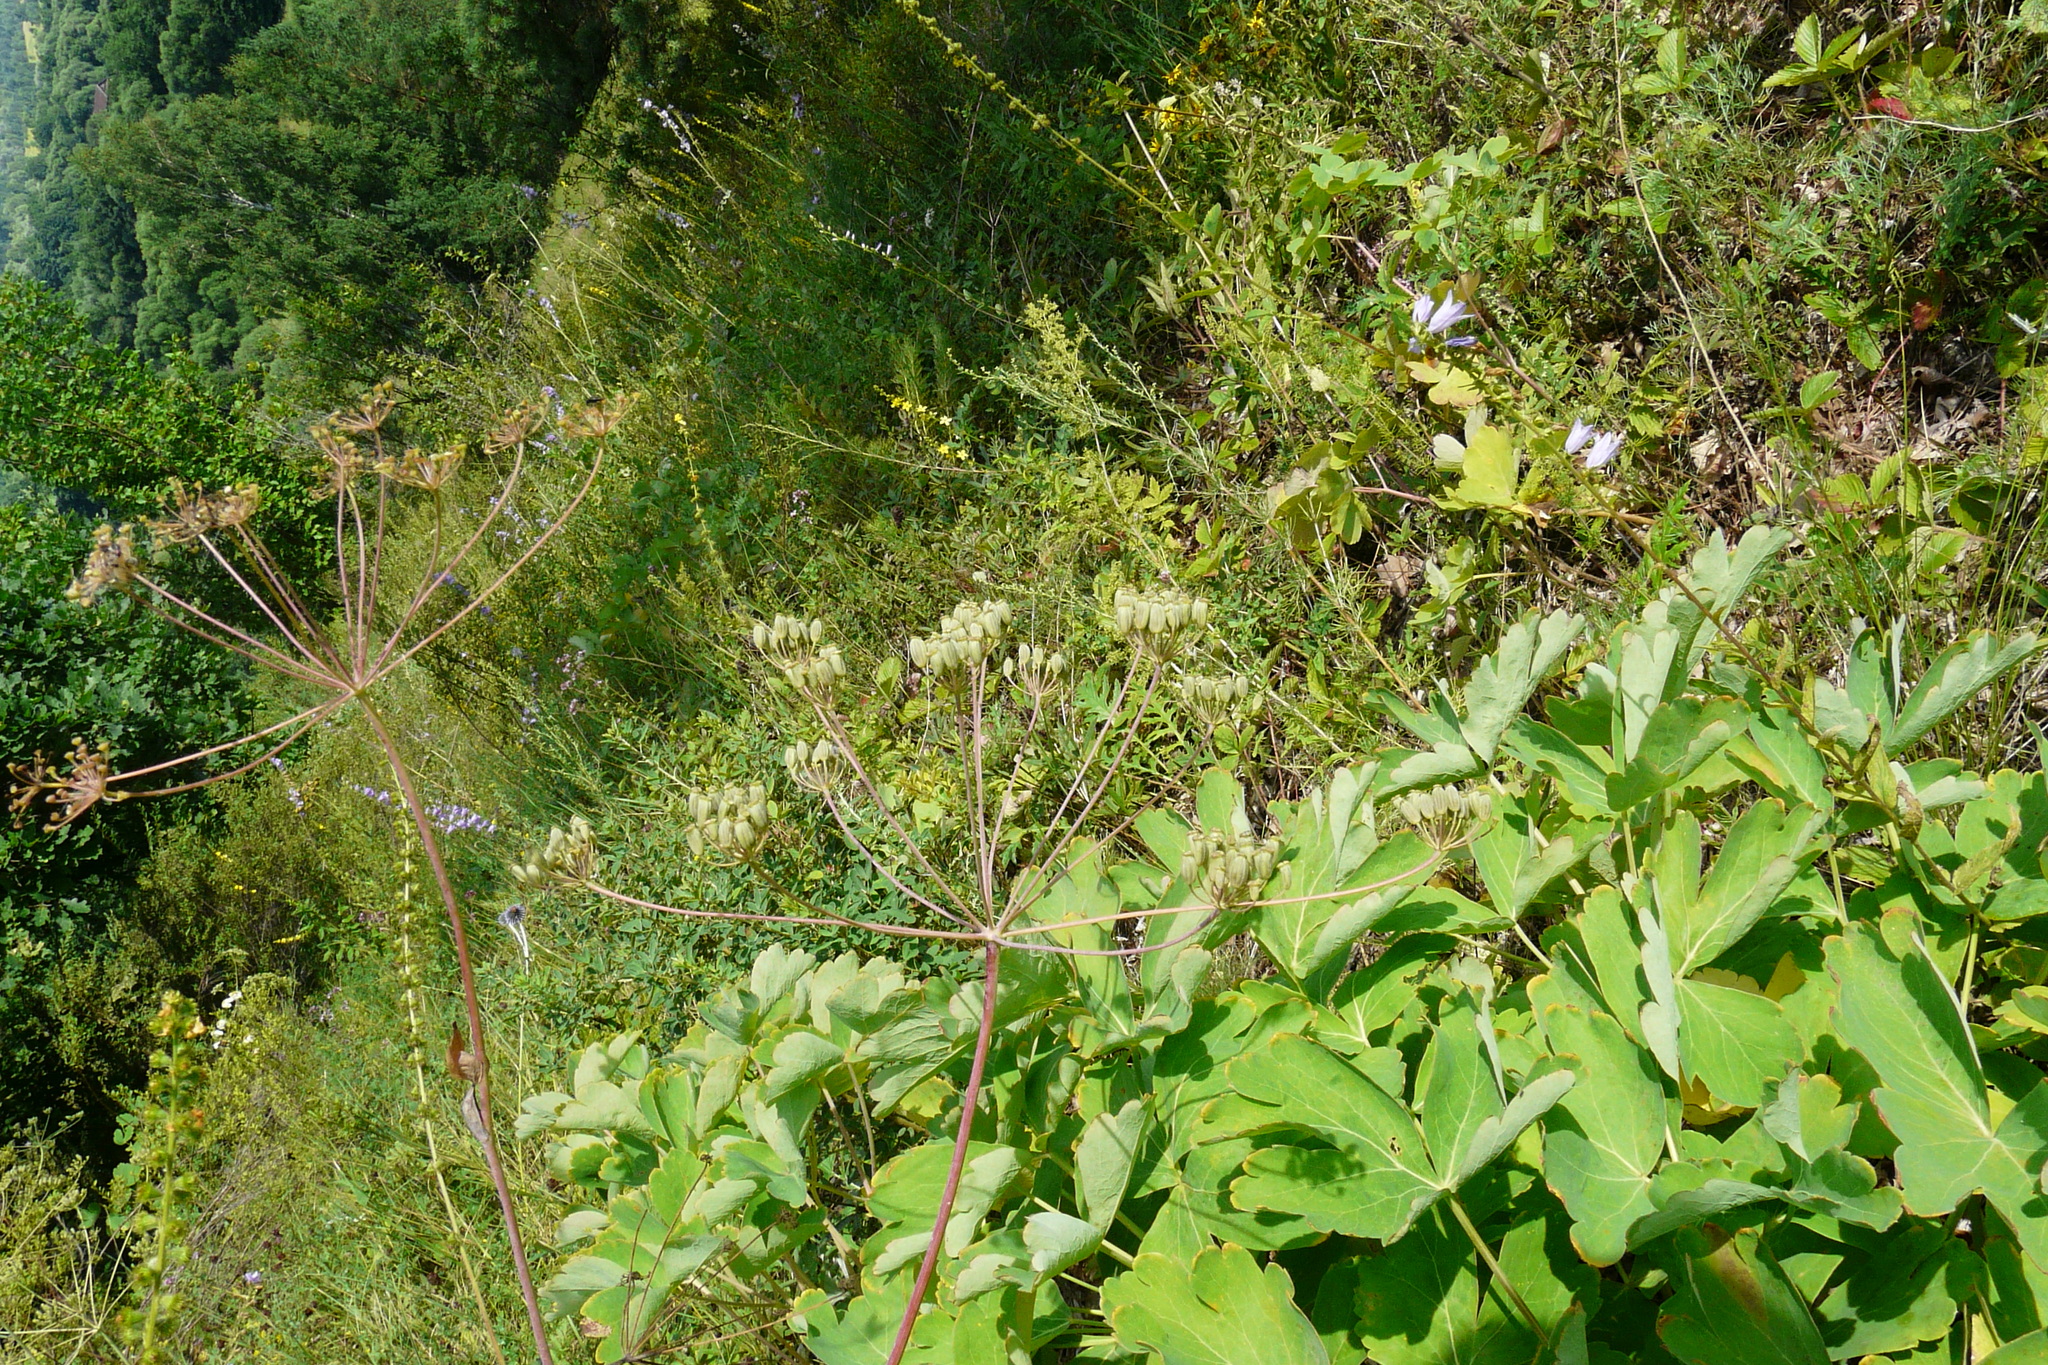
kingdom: Plantae
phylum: Tracheophyta
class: Magnoliopsida
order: Apiales
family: Apiaceae
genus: Laser
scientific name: Laser trilobum
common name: Laser
